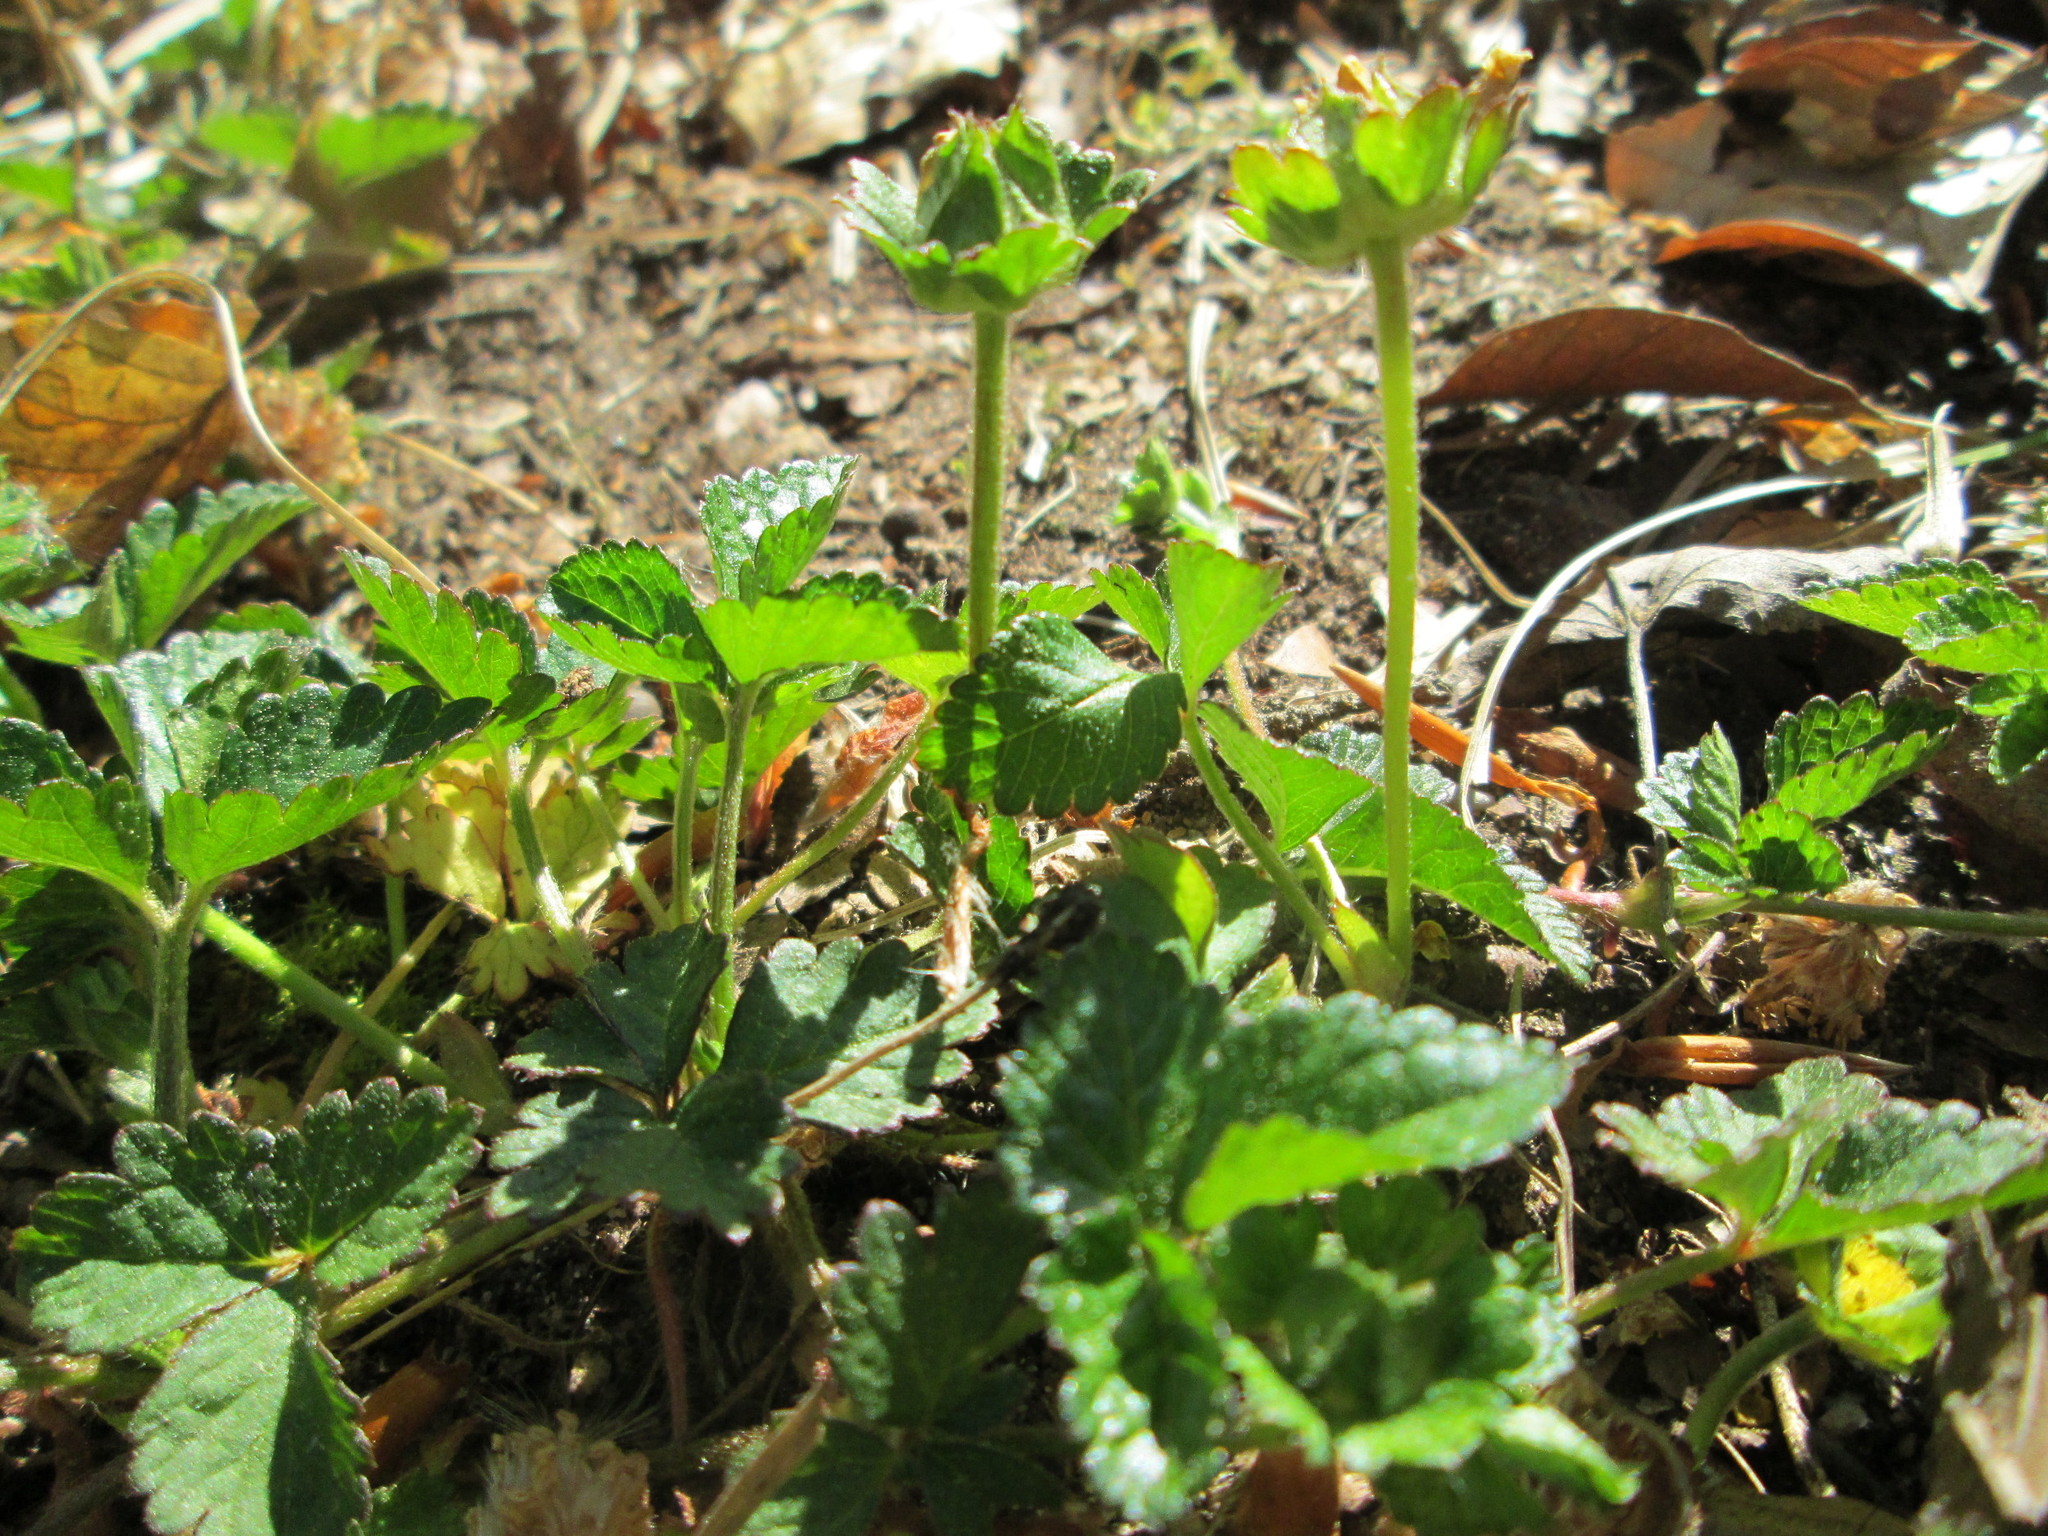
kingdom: Plantae
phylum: Tracheophyta
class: Magnoliopsida
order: Rosales
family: Rosaceae
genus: Potentilla
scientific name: Potentilla indica
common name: Yellow-flowered strawberry
